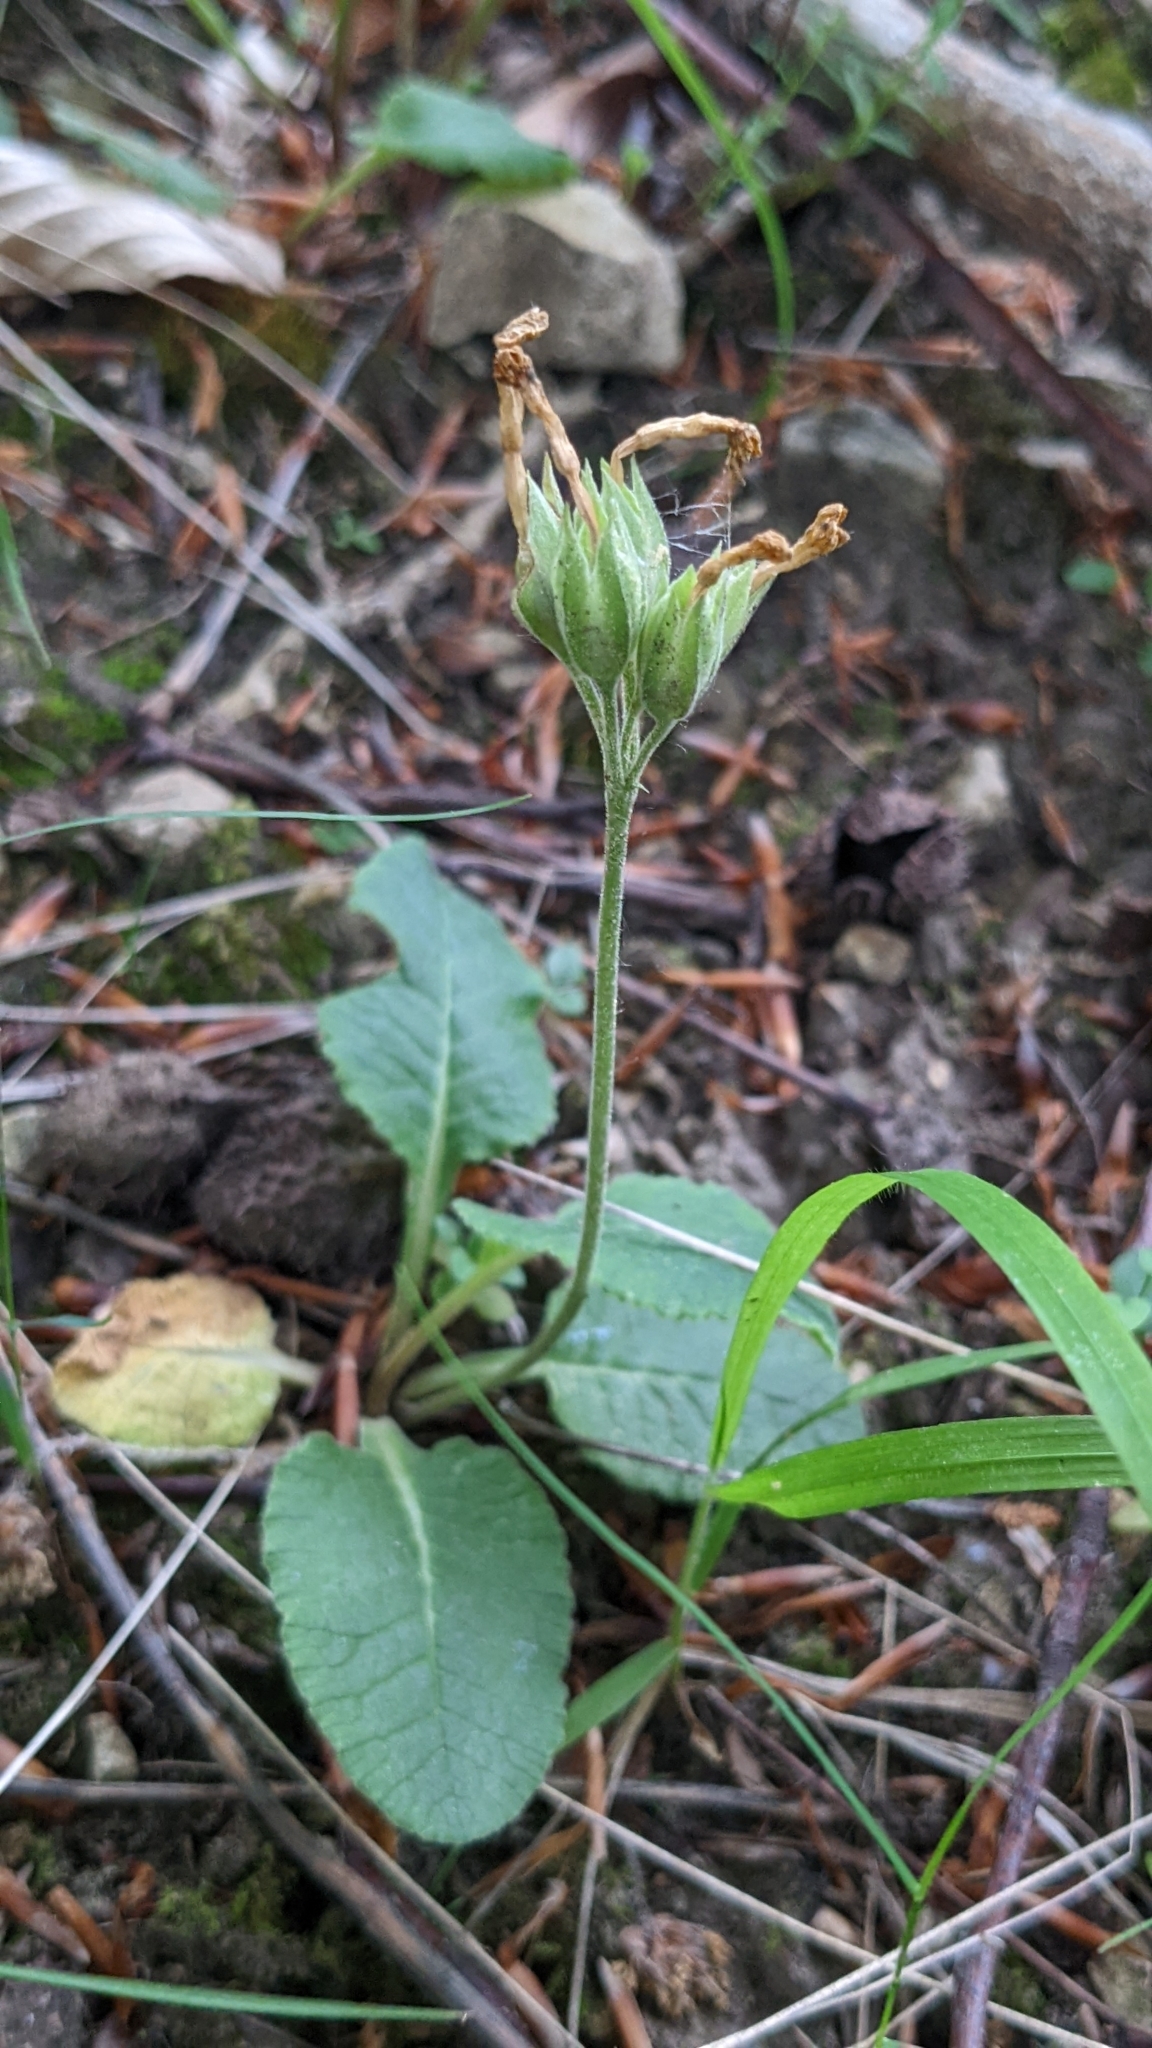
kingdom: Plantae
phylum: Tracheophyta
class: Magnoliopsida
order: Ericales
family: Primulaceae
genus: Primula
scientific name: Primula veris
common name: Cowslip
